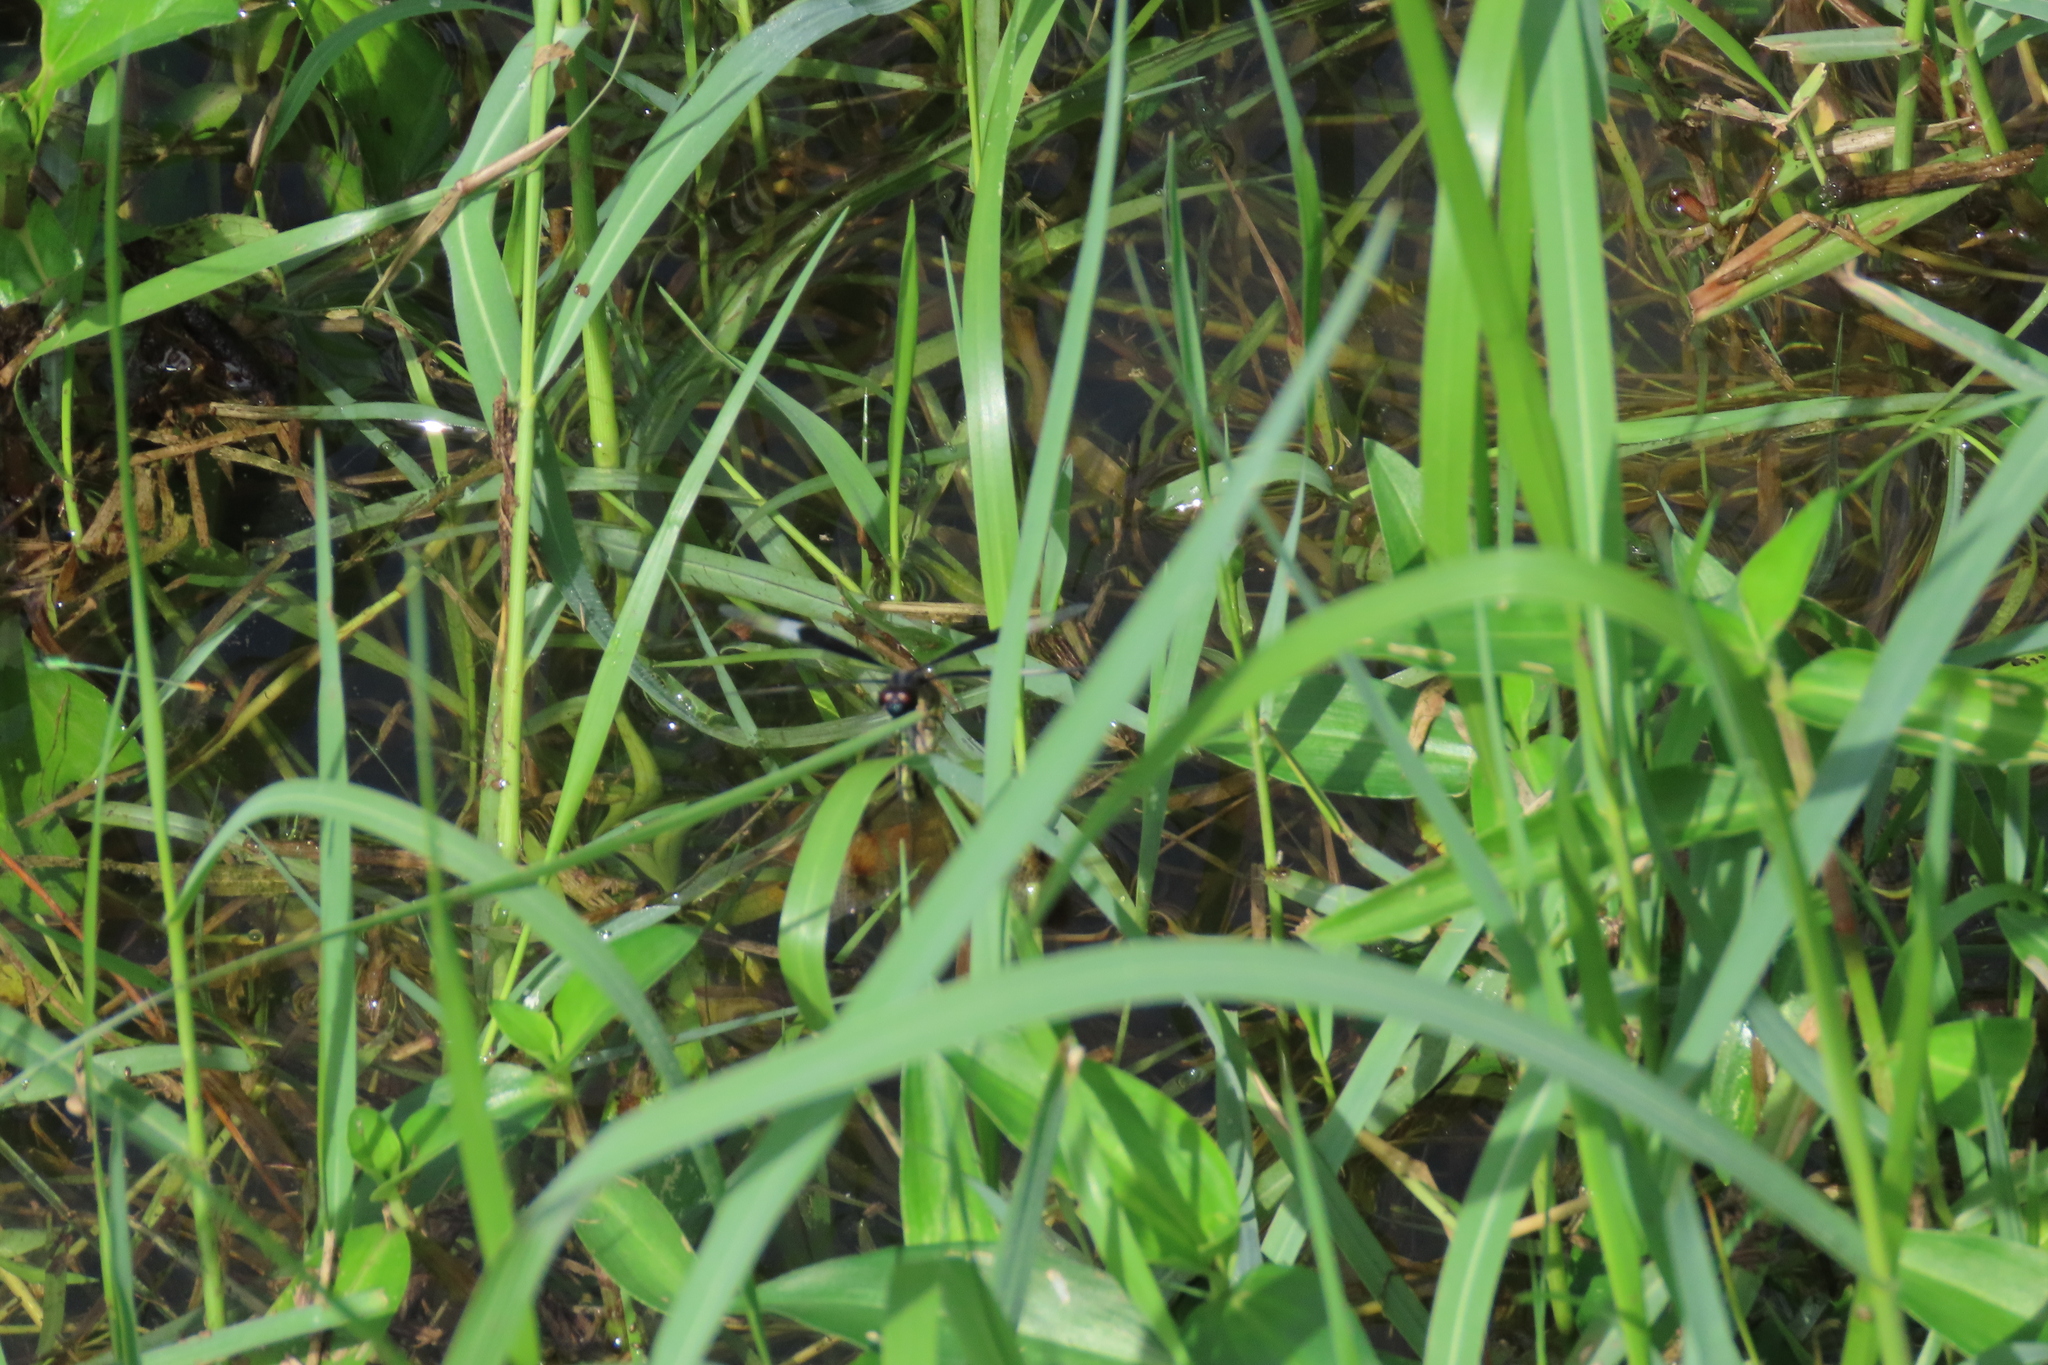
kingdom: Animalia
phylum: Arthropoda
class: Insecta
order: Odonata
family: Libellulidae
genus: Neurothemis
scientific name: Neurothemis tullia
